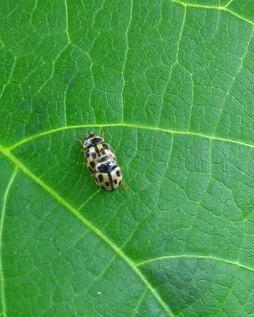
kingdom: Animalia
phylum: Arthropoda
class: Insecta
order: Coleoptera
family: Coccinellidae
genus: Propylaea
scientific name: Propylaea quatuordecimpunctata
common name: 14-spotted ladybird beetle
